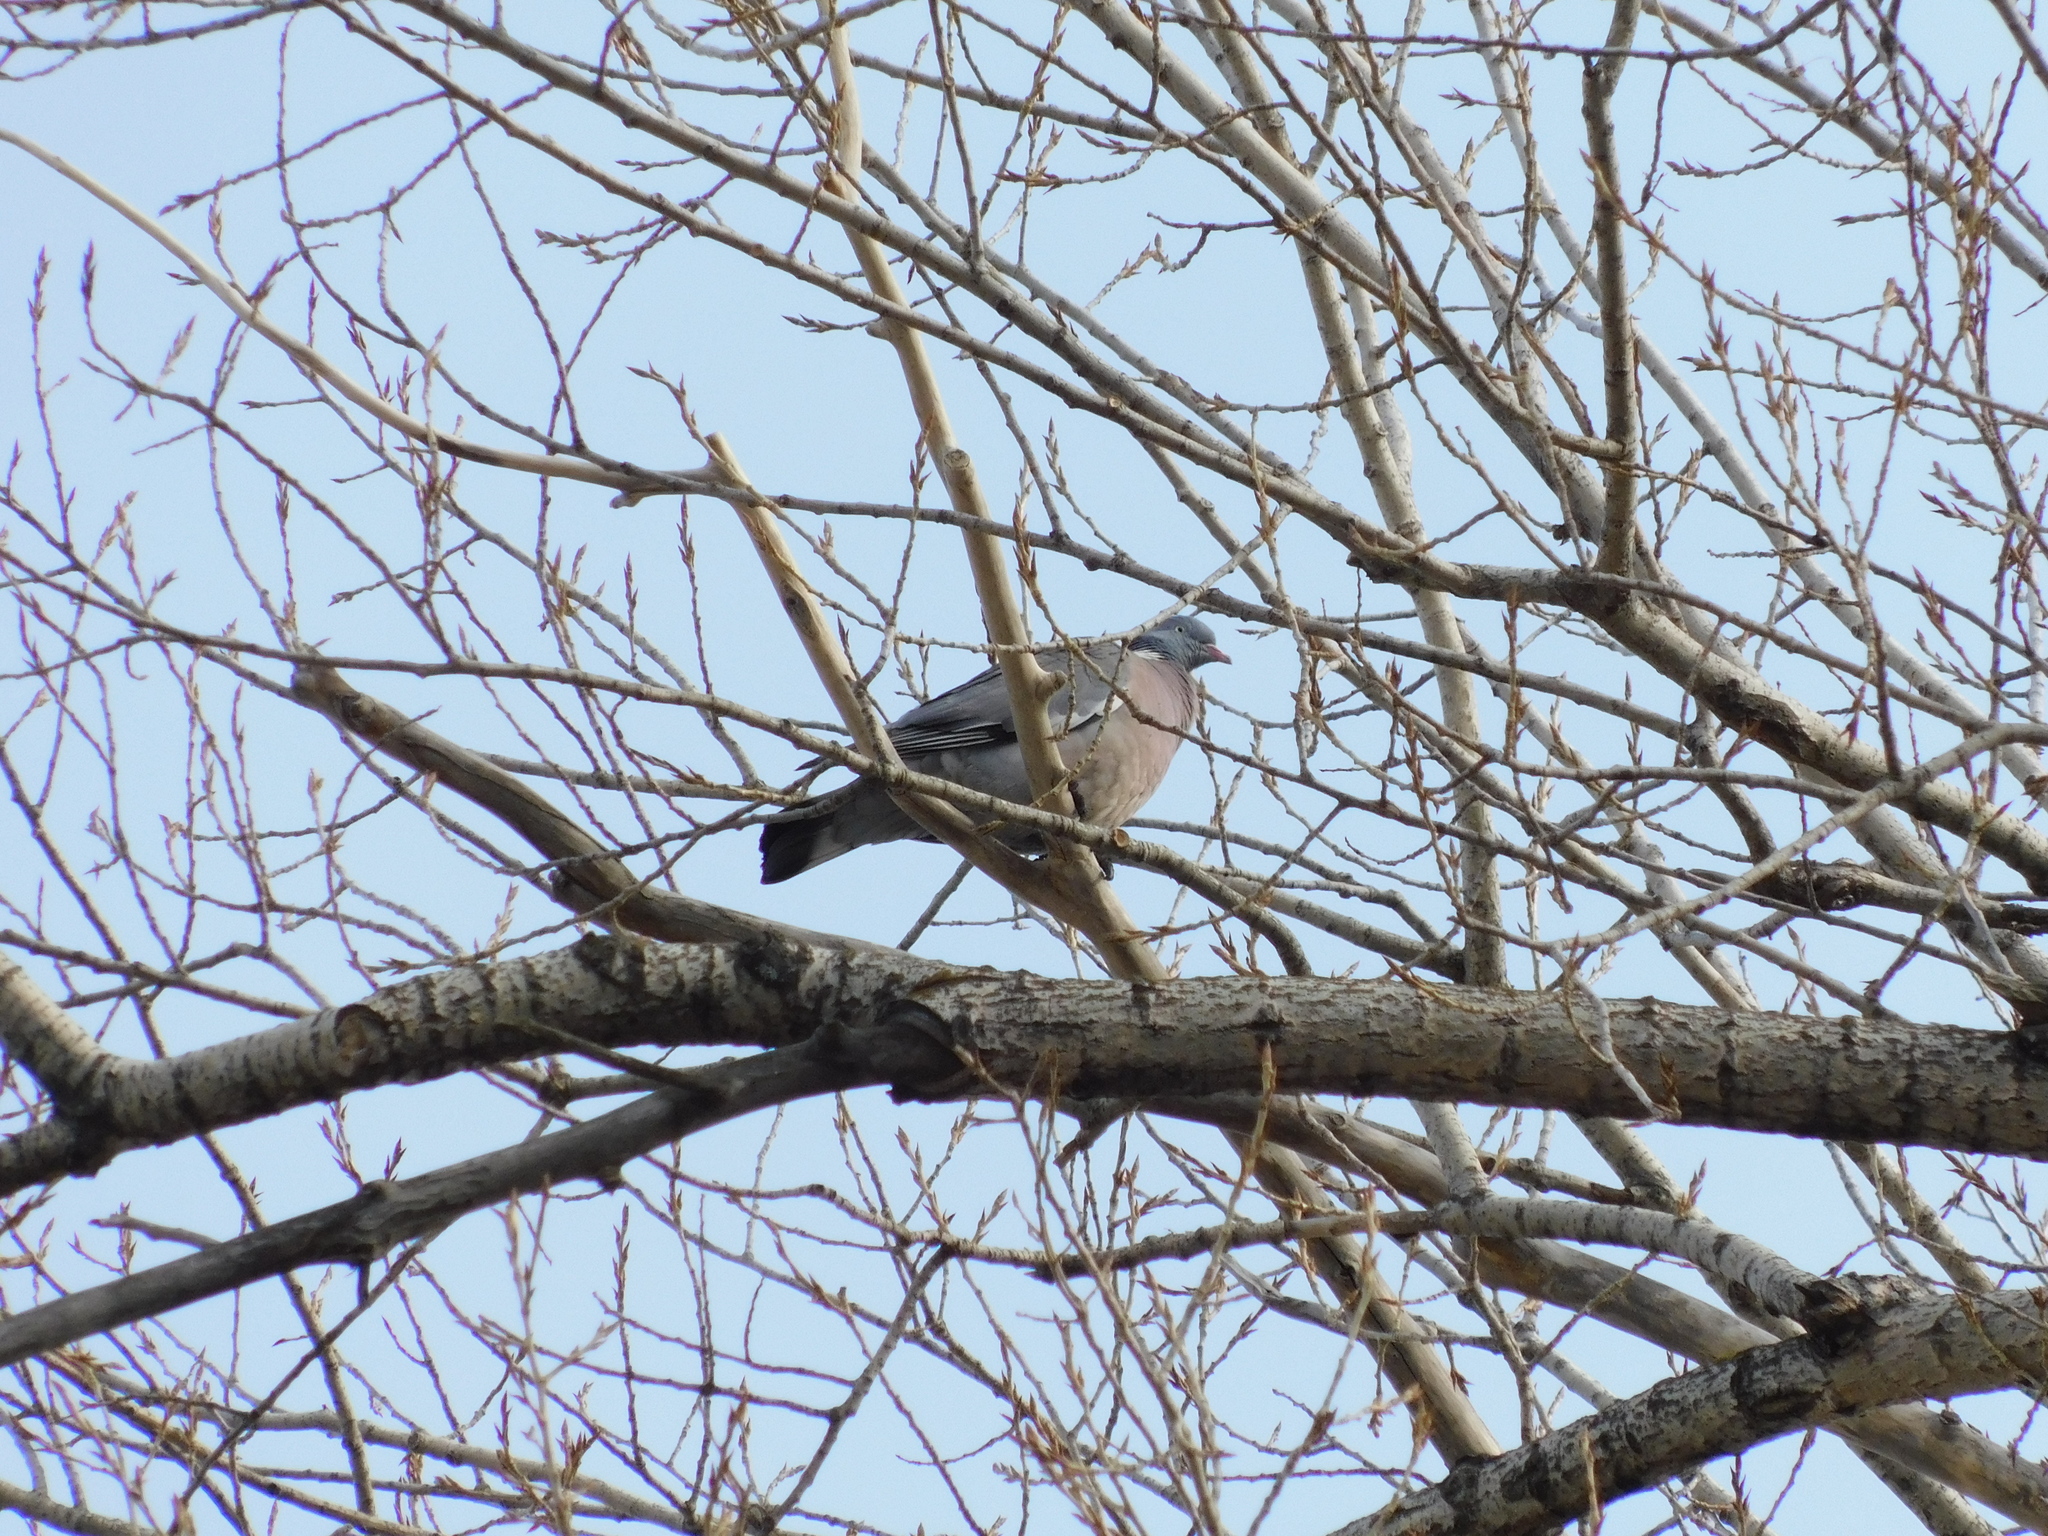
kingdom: Animalia
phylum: Chordata
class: Aves
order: Columbiformes
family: Columbidae
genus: Columba
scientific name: Columba palumbus
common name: Common wood pigeon
